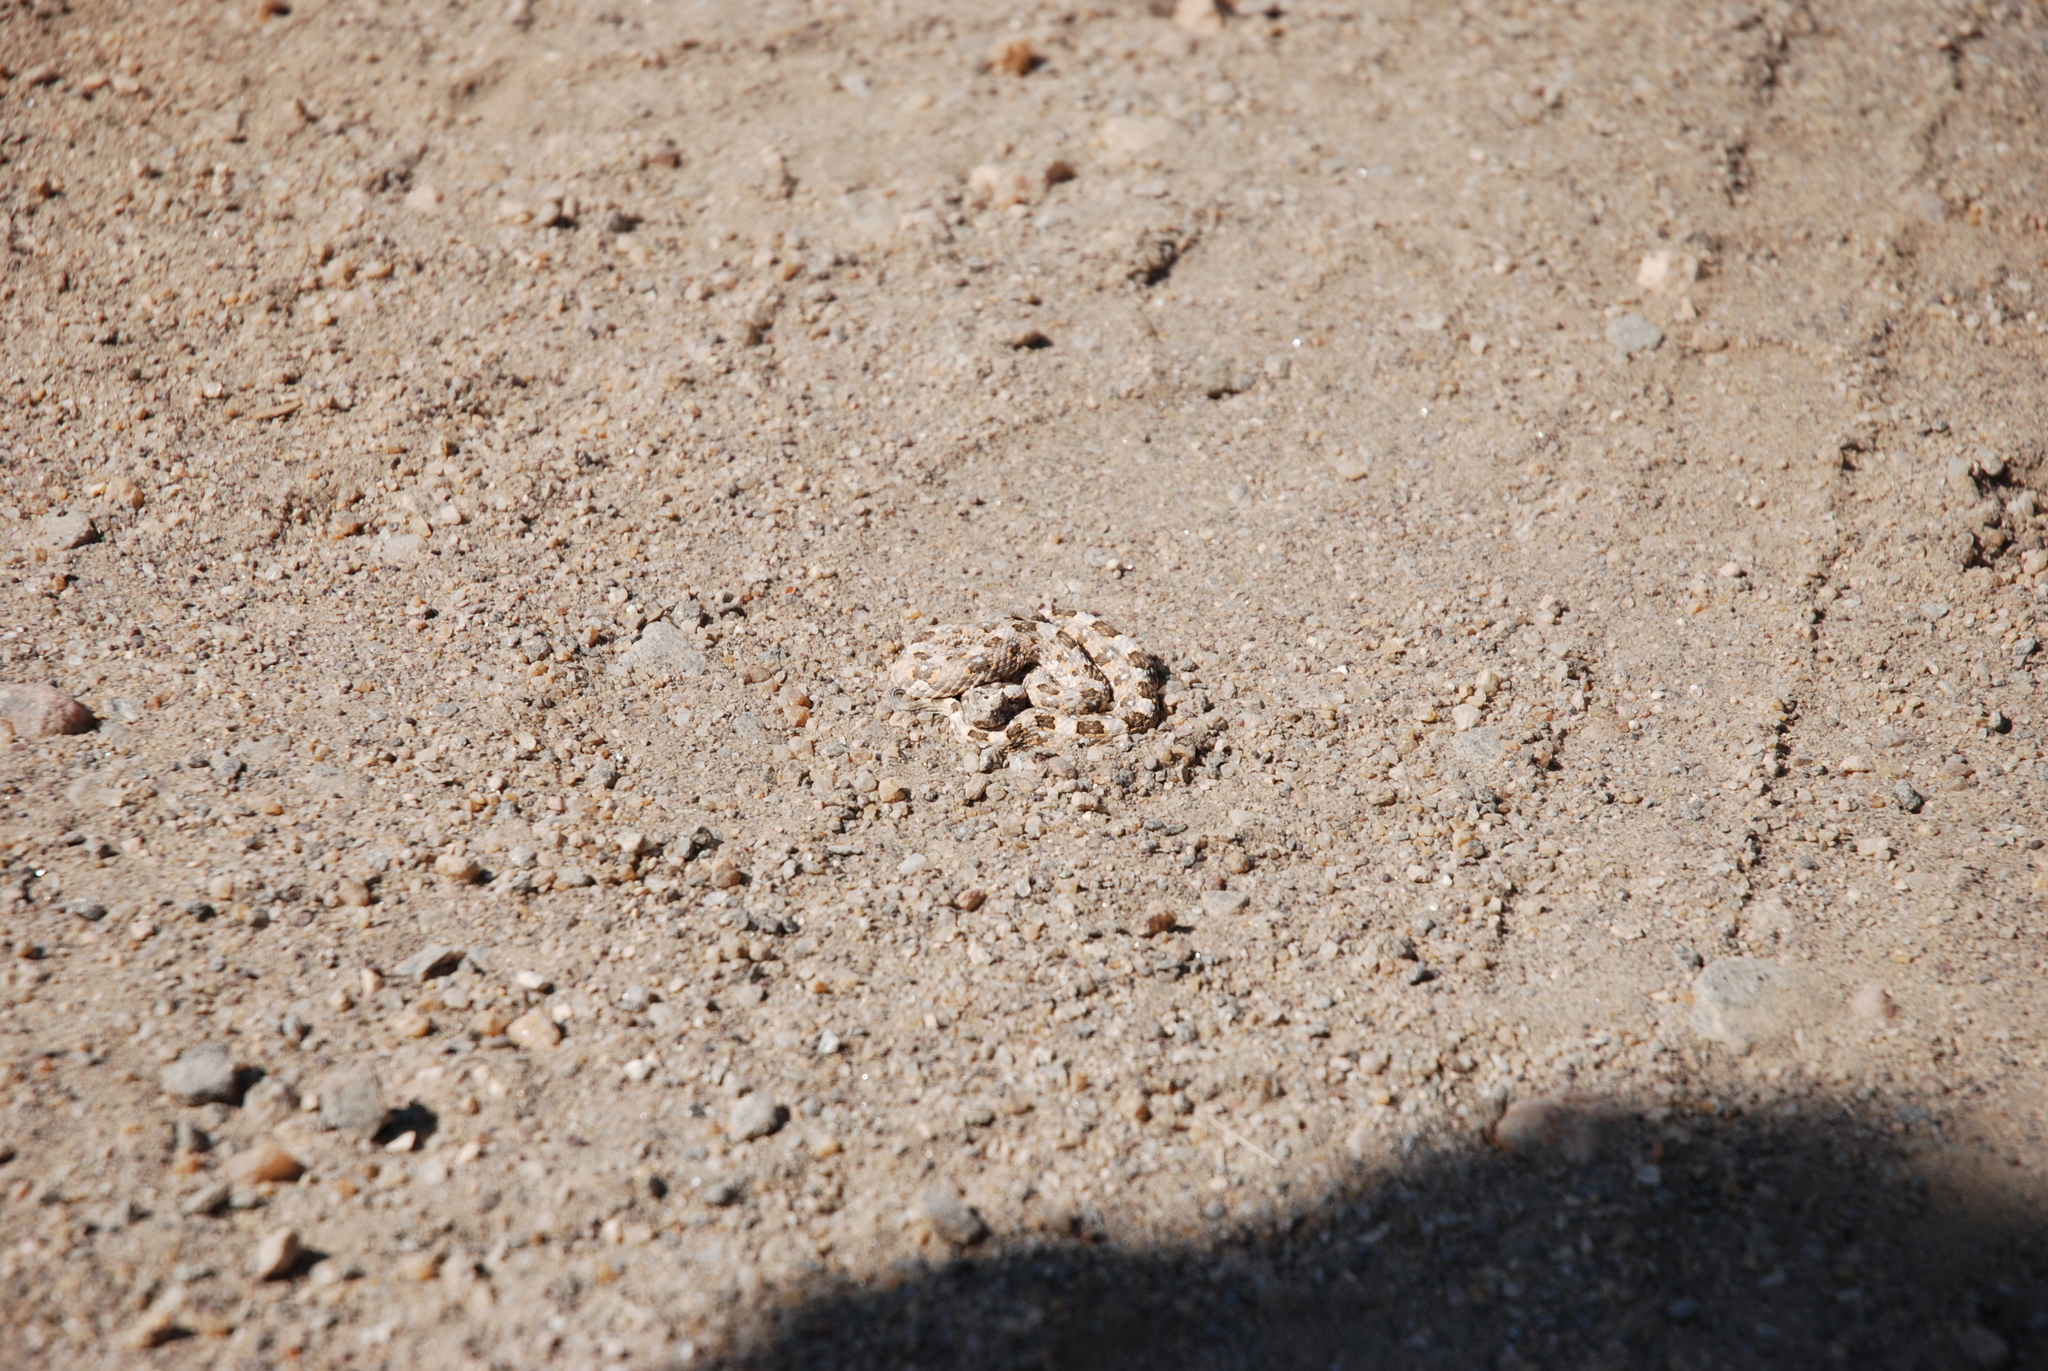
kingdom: Animalia
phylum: Chordata
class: Squamata
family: Viperidae
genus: Bitis
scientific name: Bitis caudalis
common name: Horned adder
